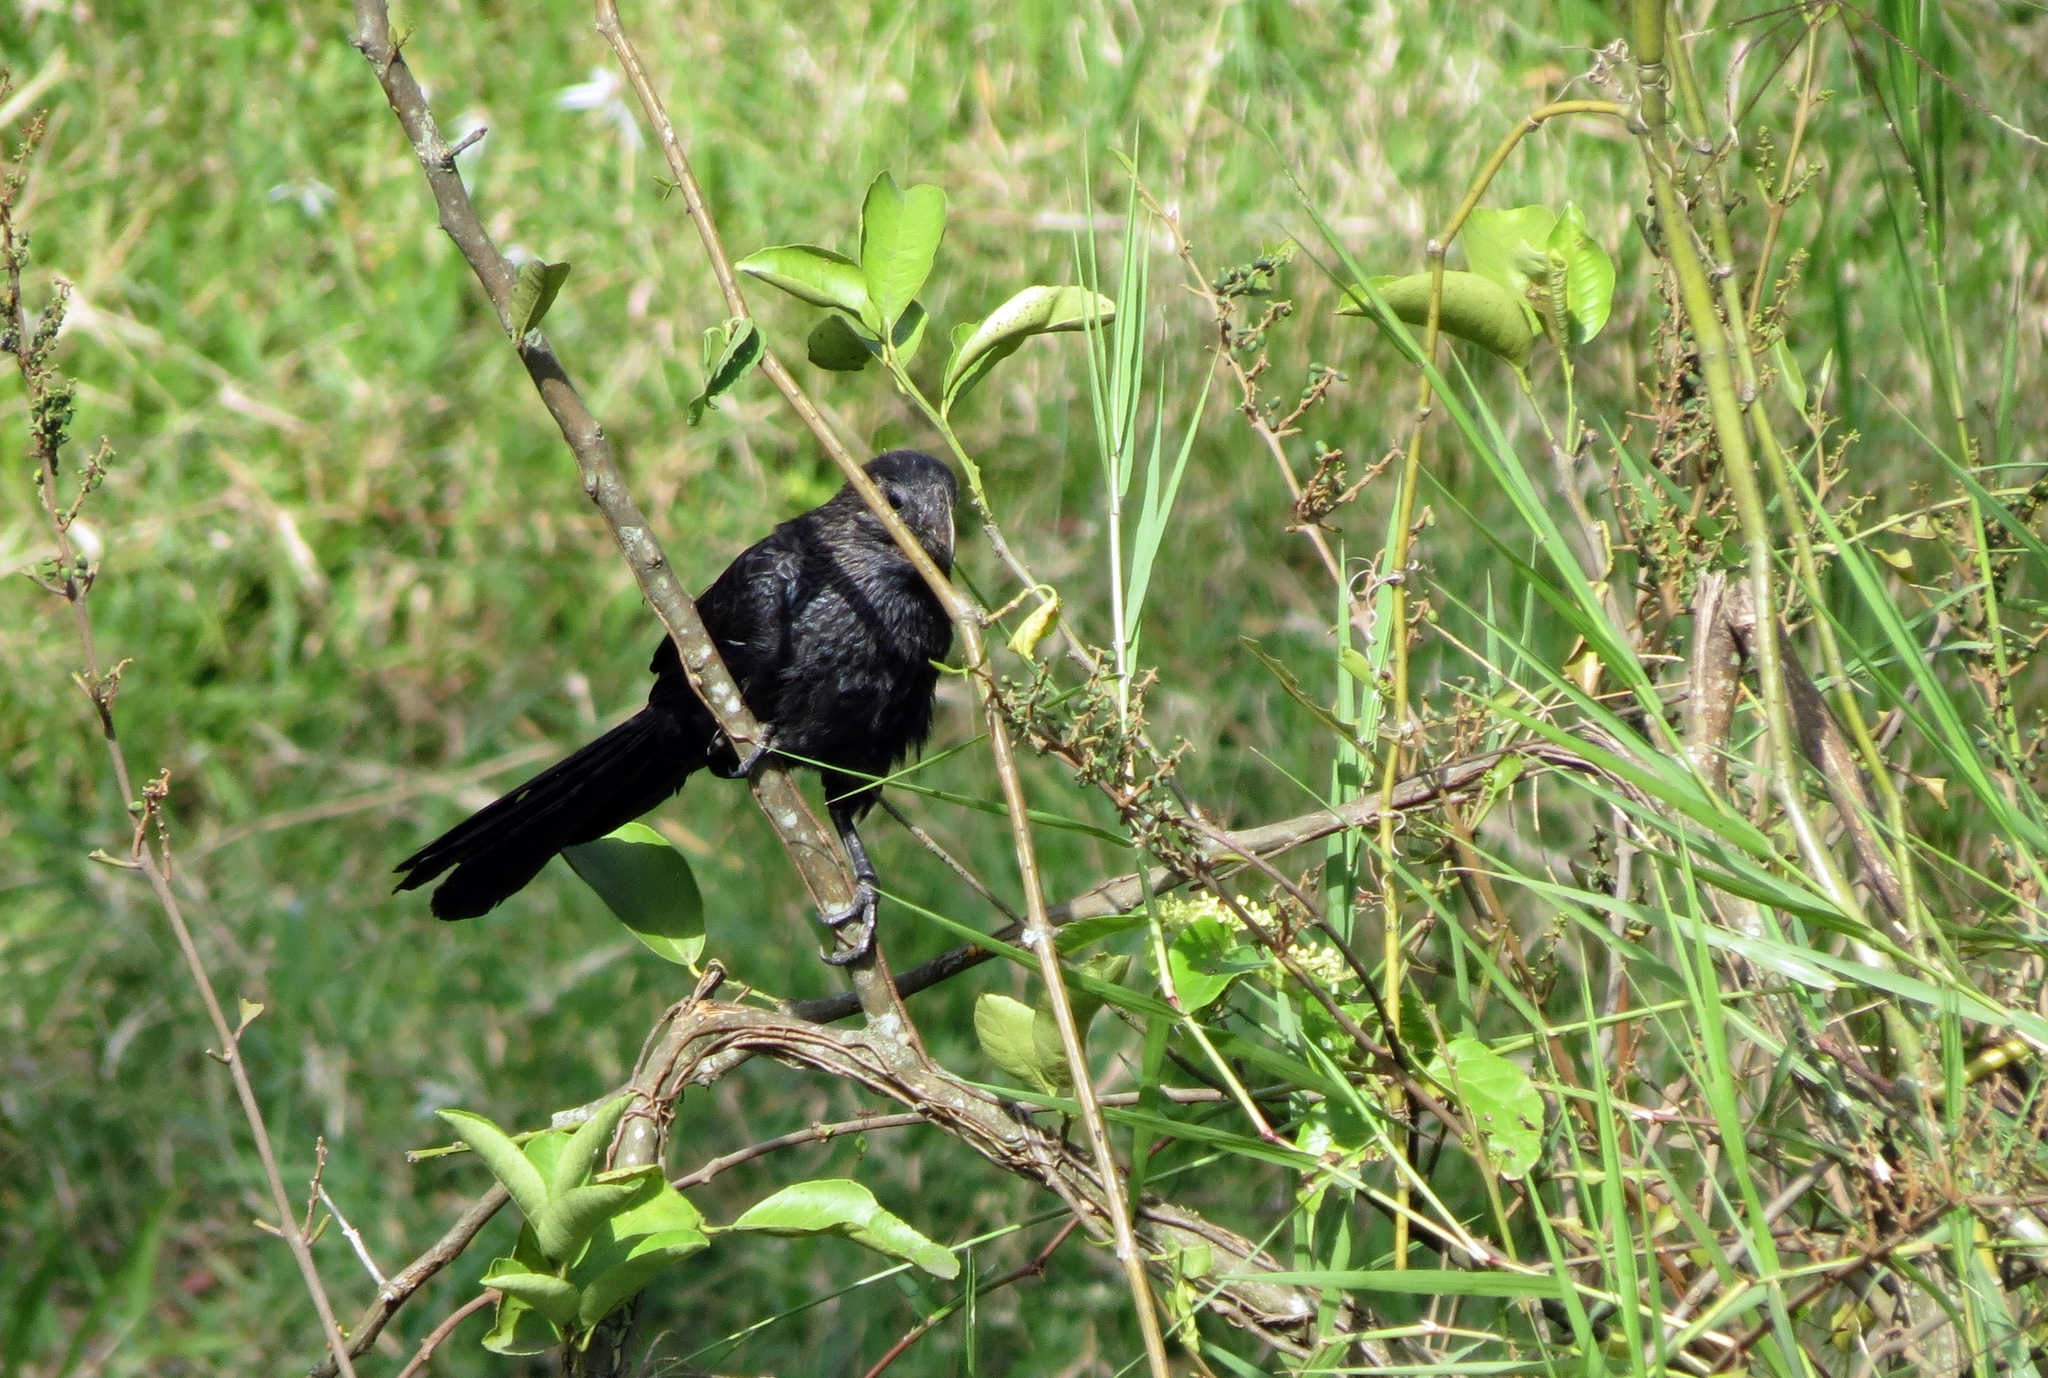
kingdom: Animalia
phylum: Chordata
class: Aves
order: Cuculiformes
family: Cuculidae
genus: Crotophaga
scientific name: Crotophaga ani
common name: Smooth-billed ani
